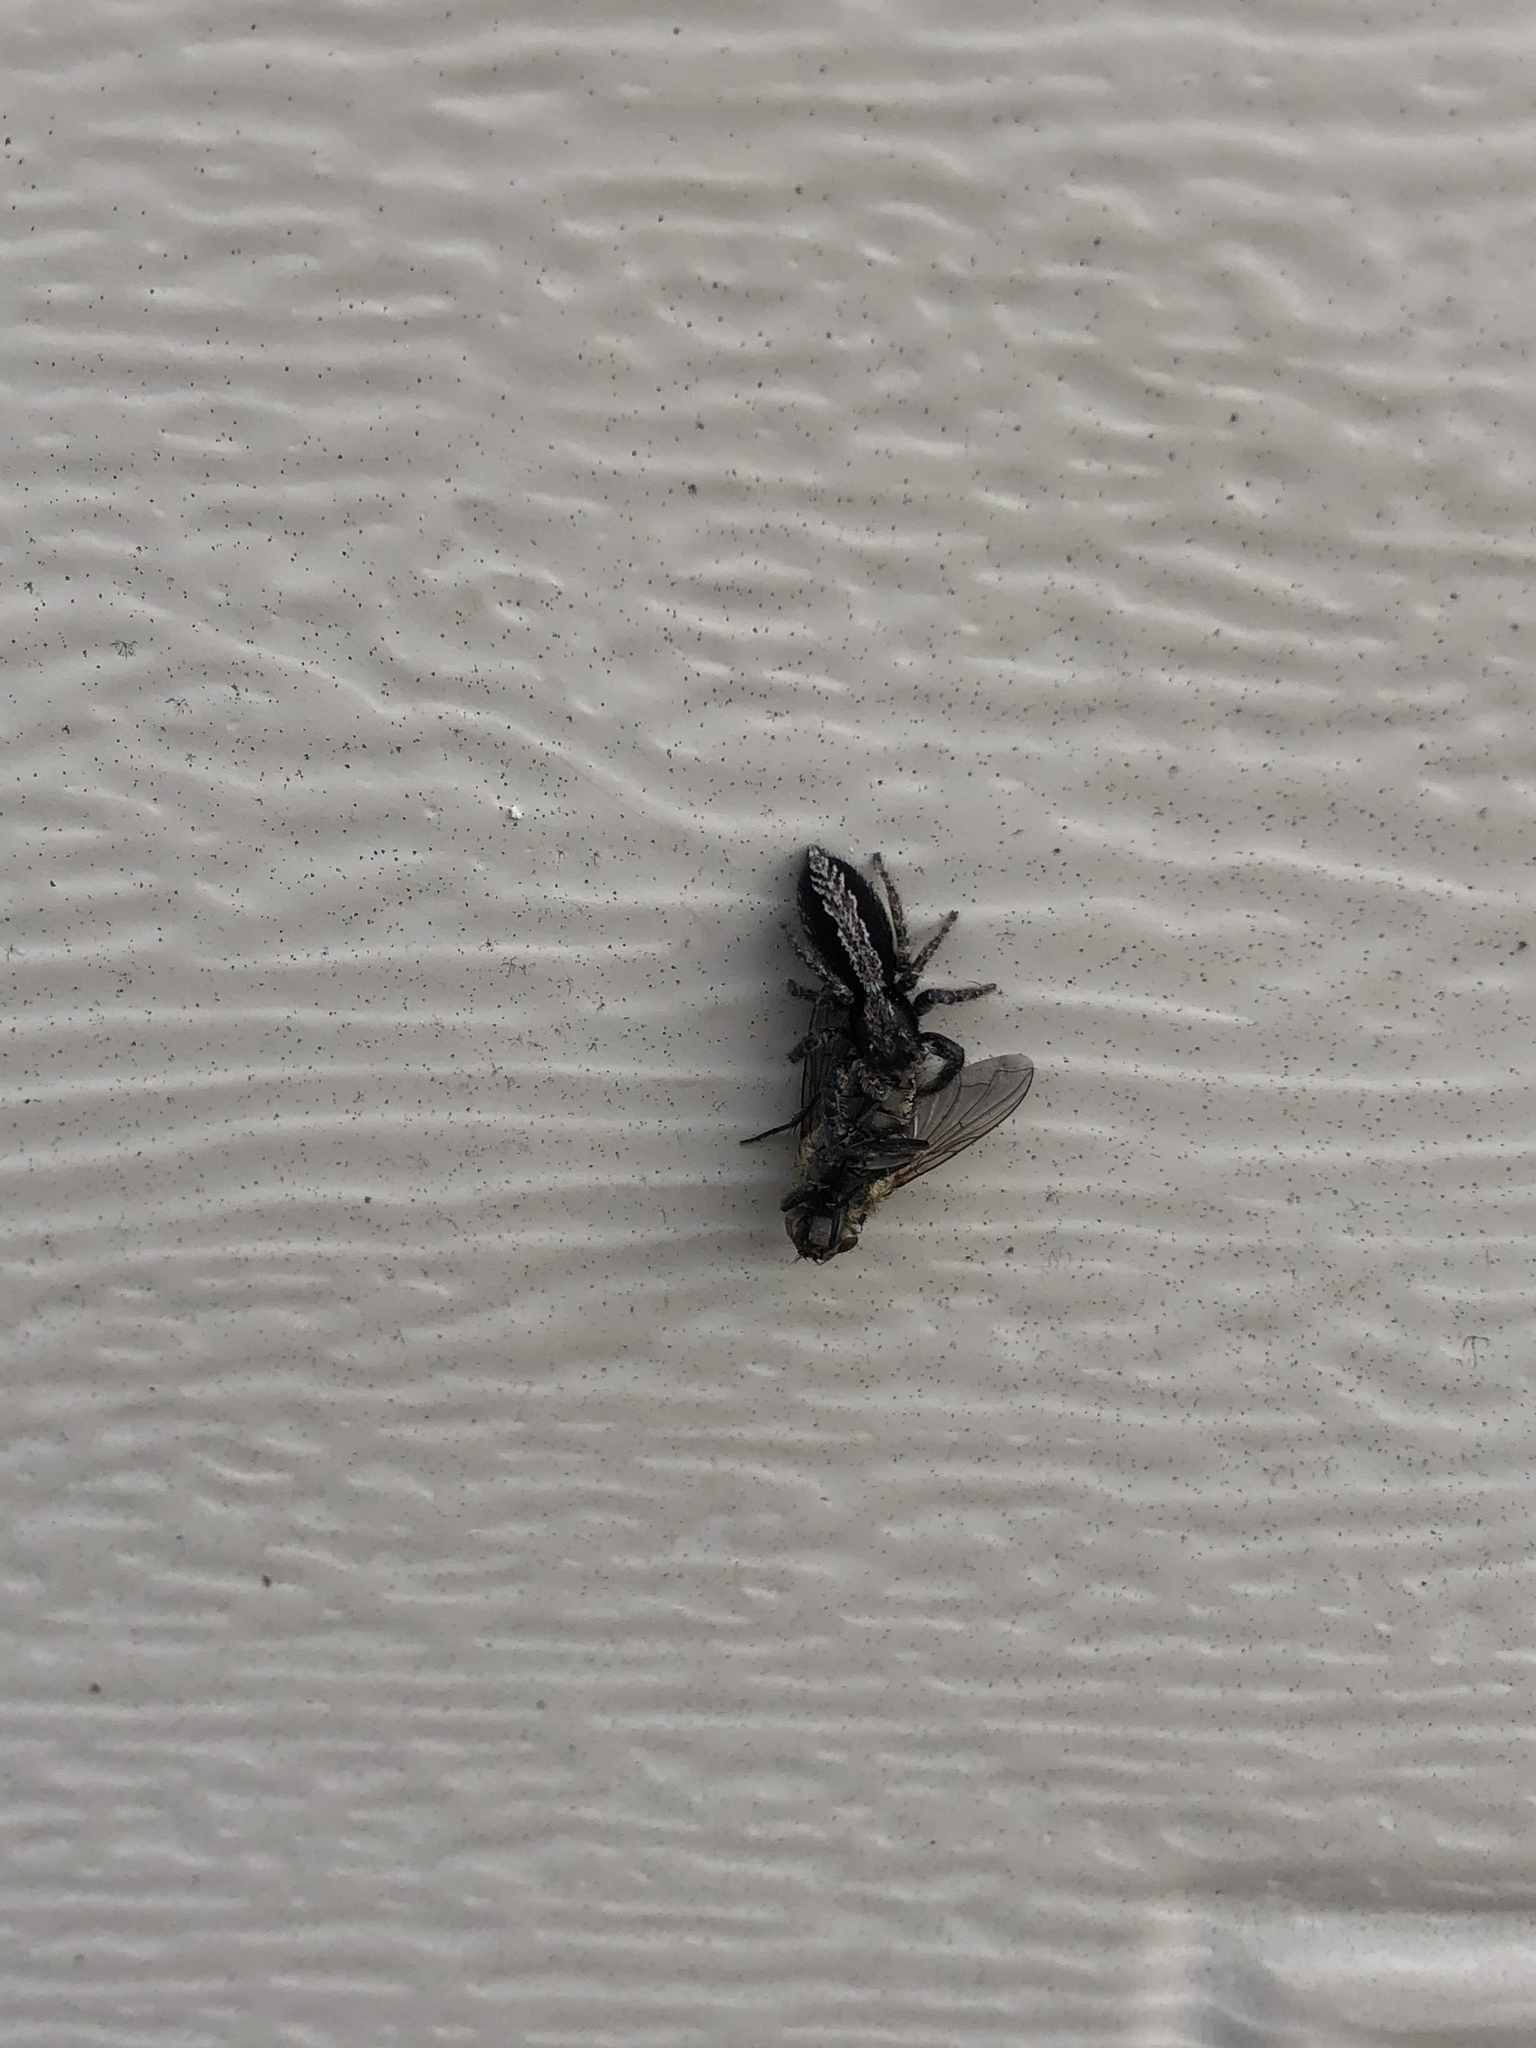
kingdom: Animalia
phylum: Arthropoda
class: Arachnida
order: Araneae
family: Salticidae
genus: Platycryptus
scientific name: Platycryptus californicus
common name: Jumping spiders
